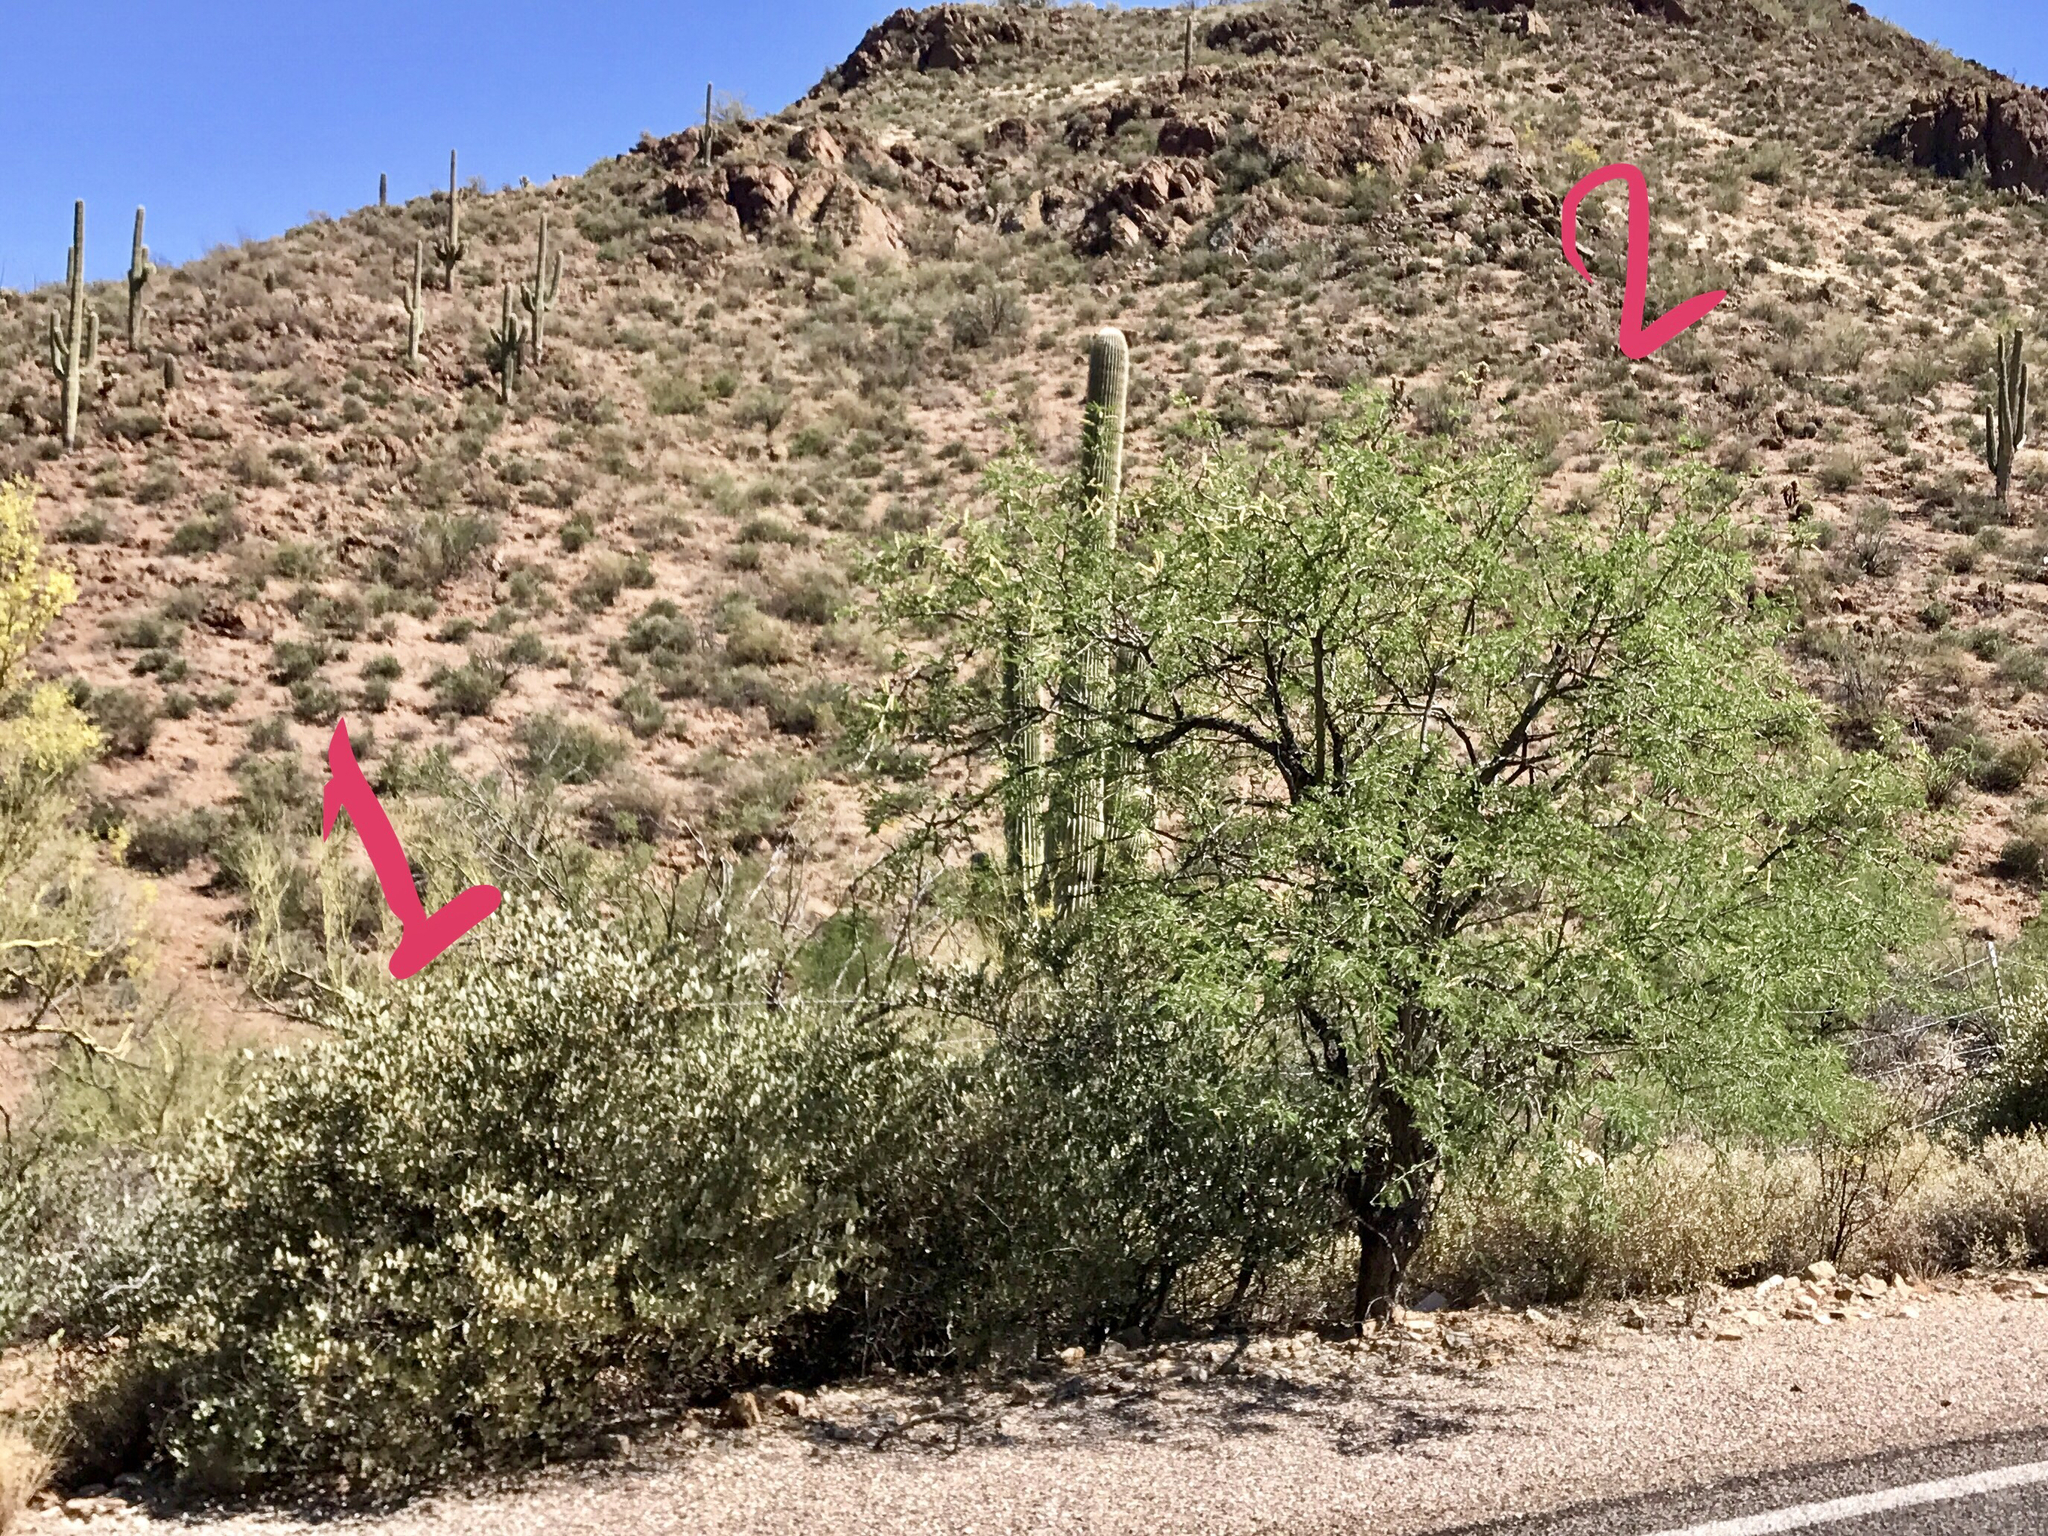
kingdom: Plantae
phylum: Tracheophyta
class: Magnoliopsida
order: Fabales
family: Fabaceae
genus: Parkinsonia
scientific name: Parkinsonia microphylla
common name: Yellow paloverde
